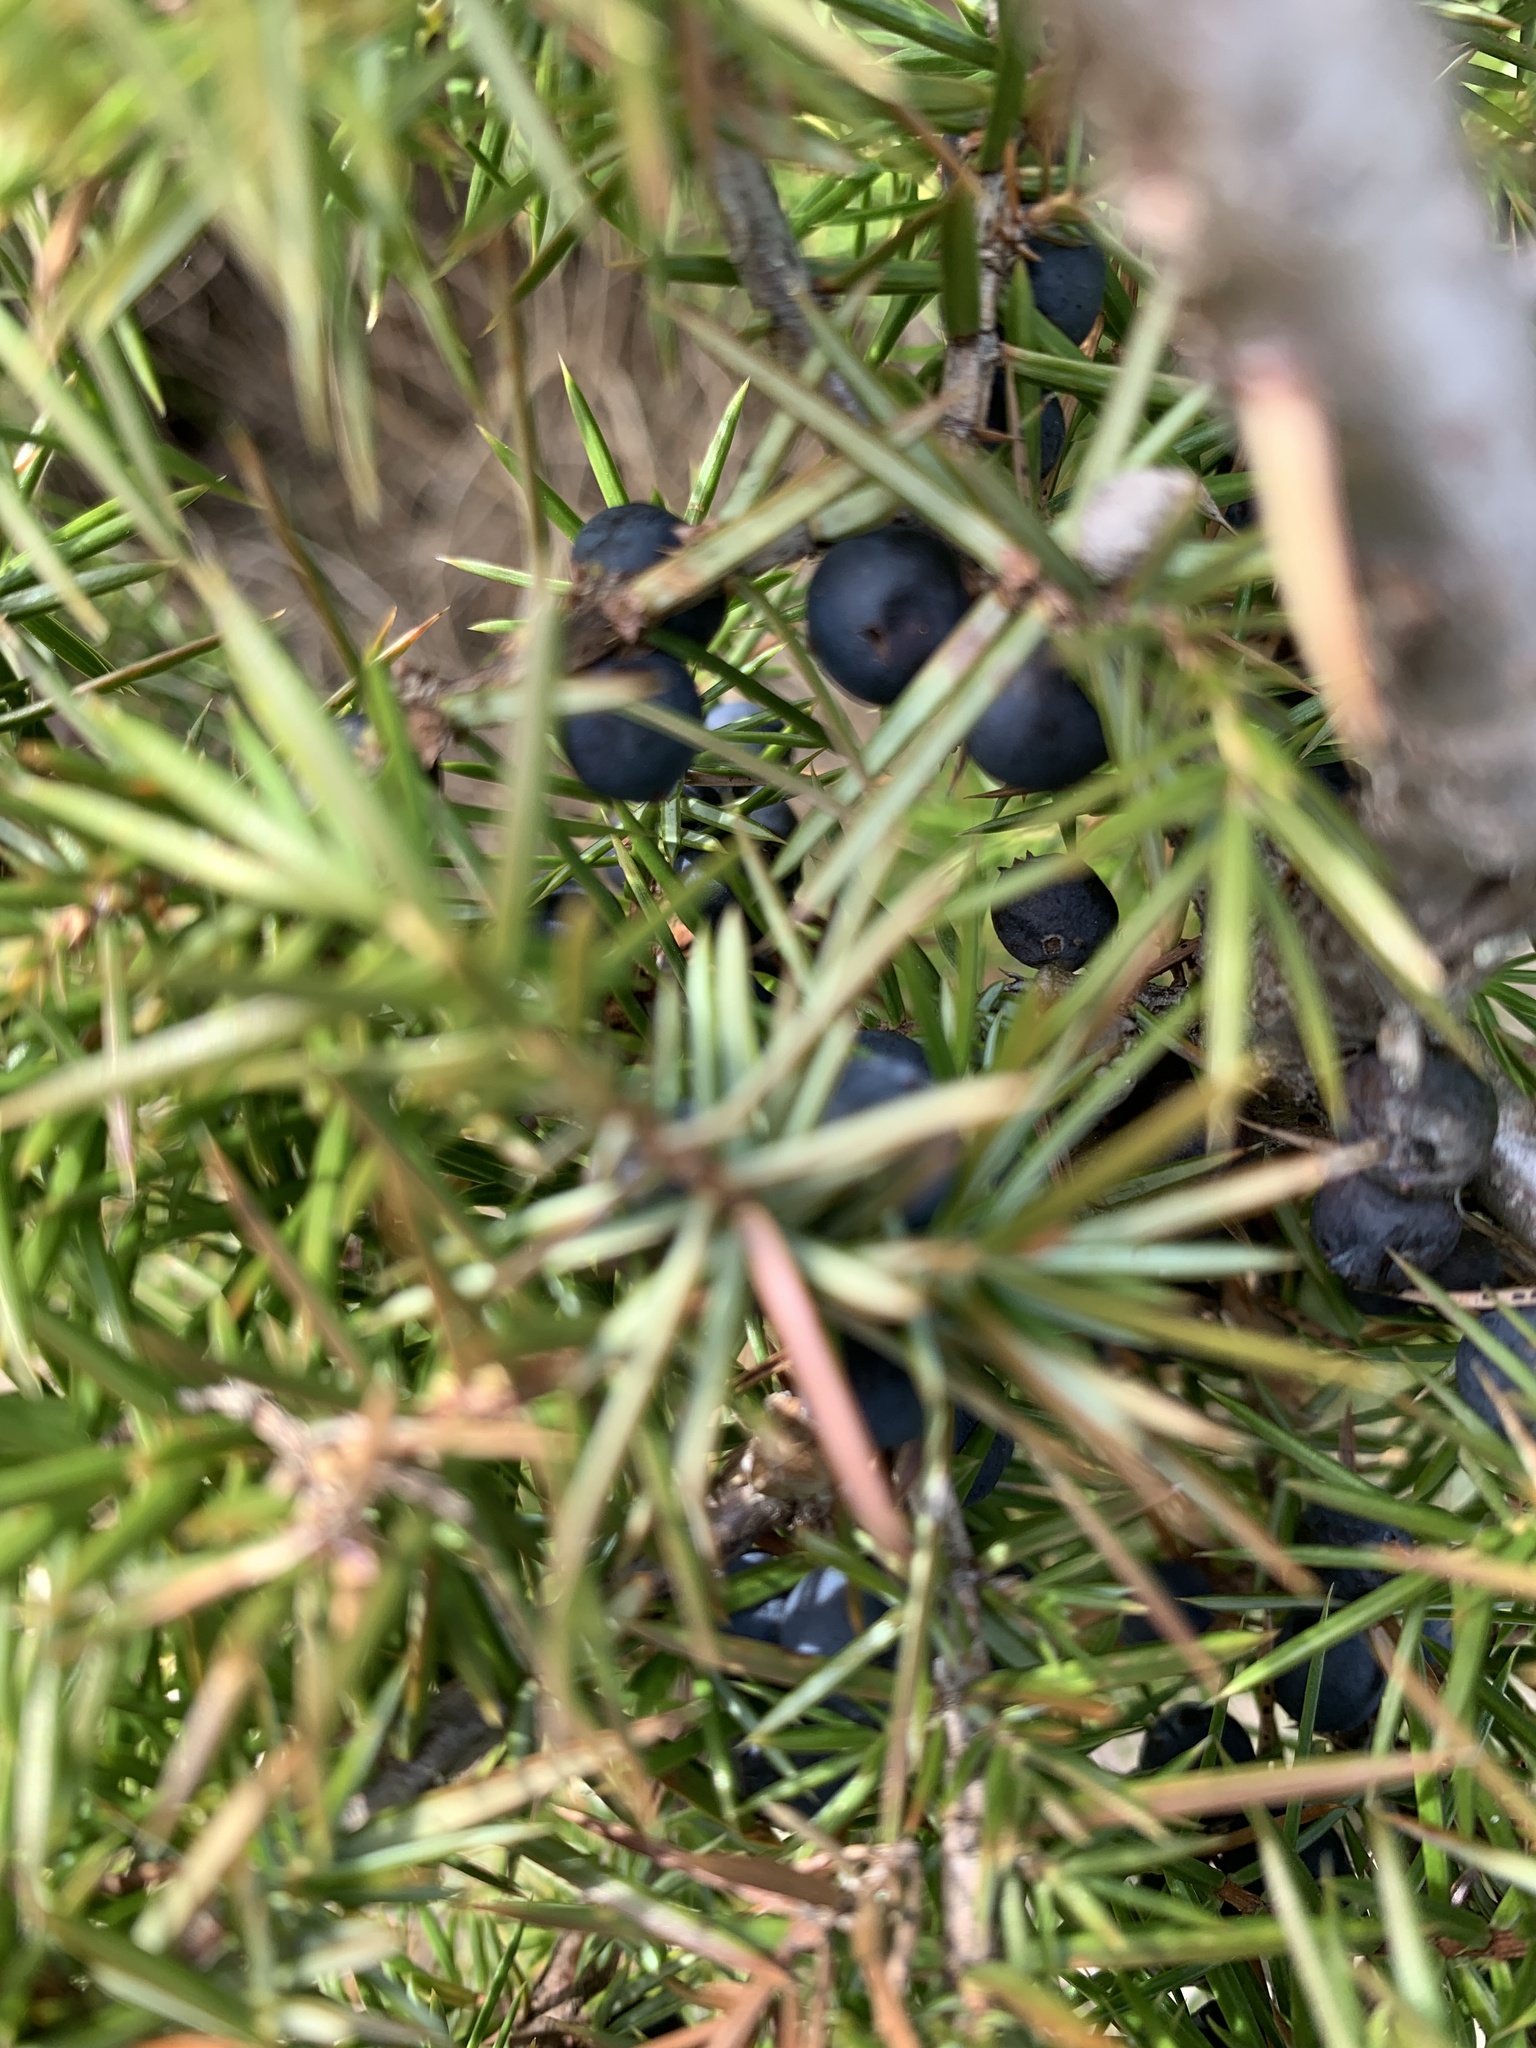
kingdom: Plantae
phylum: Tracheophyta
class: Pinopsida
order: Pinales
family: Cupressaceae
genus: Juniperus
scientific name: Juniperus communis
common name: Common juniper
